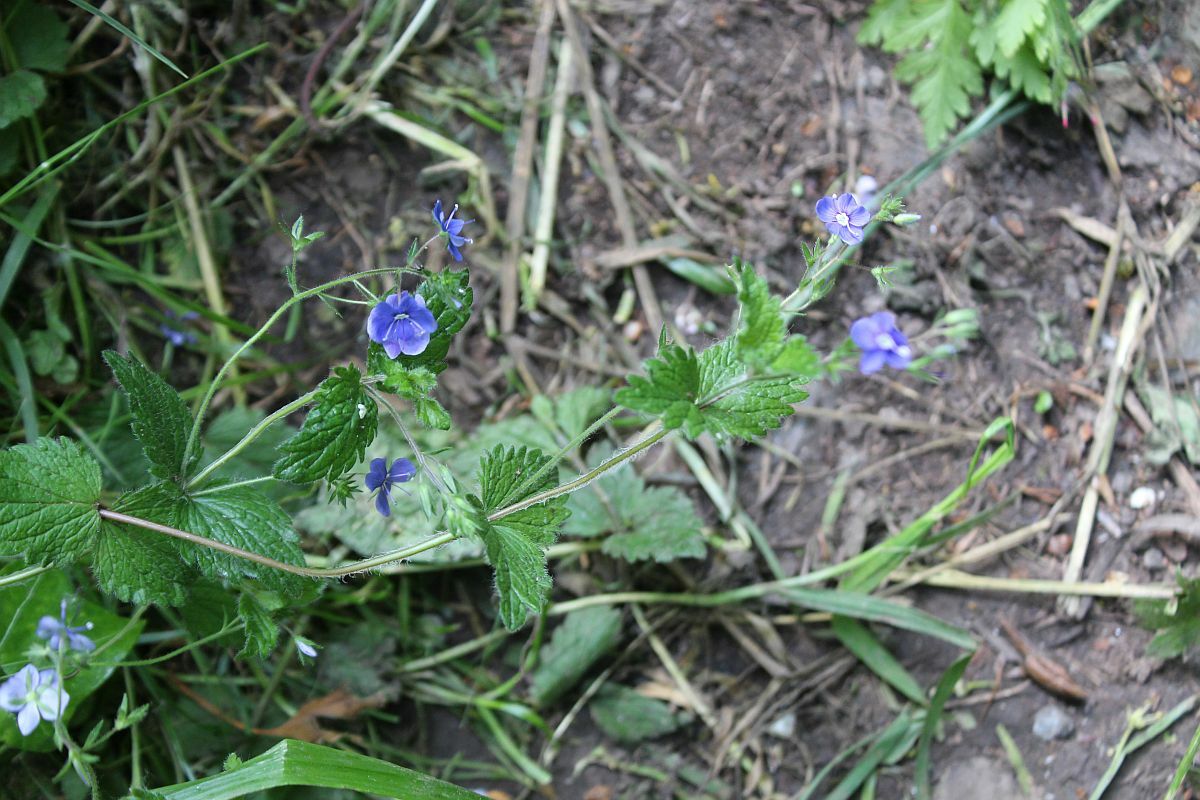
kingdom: Plantae
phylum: Tracheophyta
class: Magnoliopsida
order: Lamiales
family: Plantaginaceae
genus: Veronica
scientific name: Veronica chamaedrys
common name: Germander speedwell
